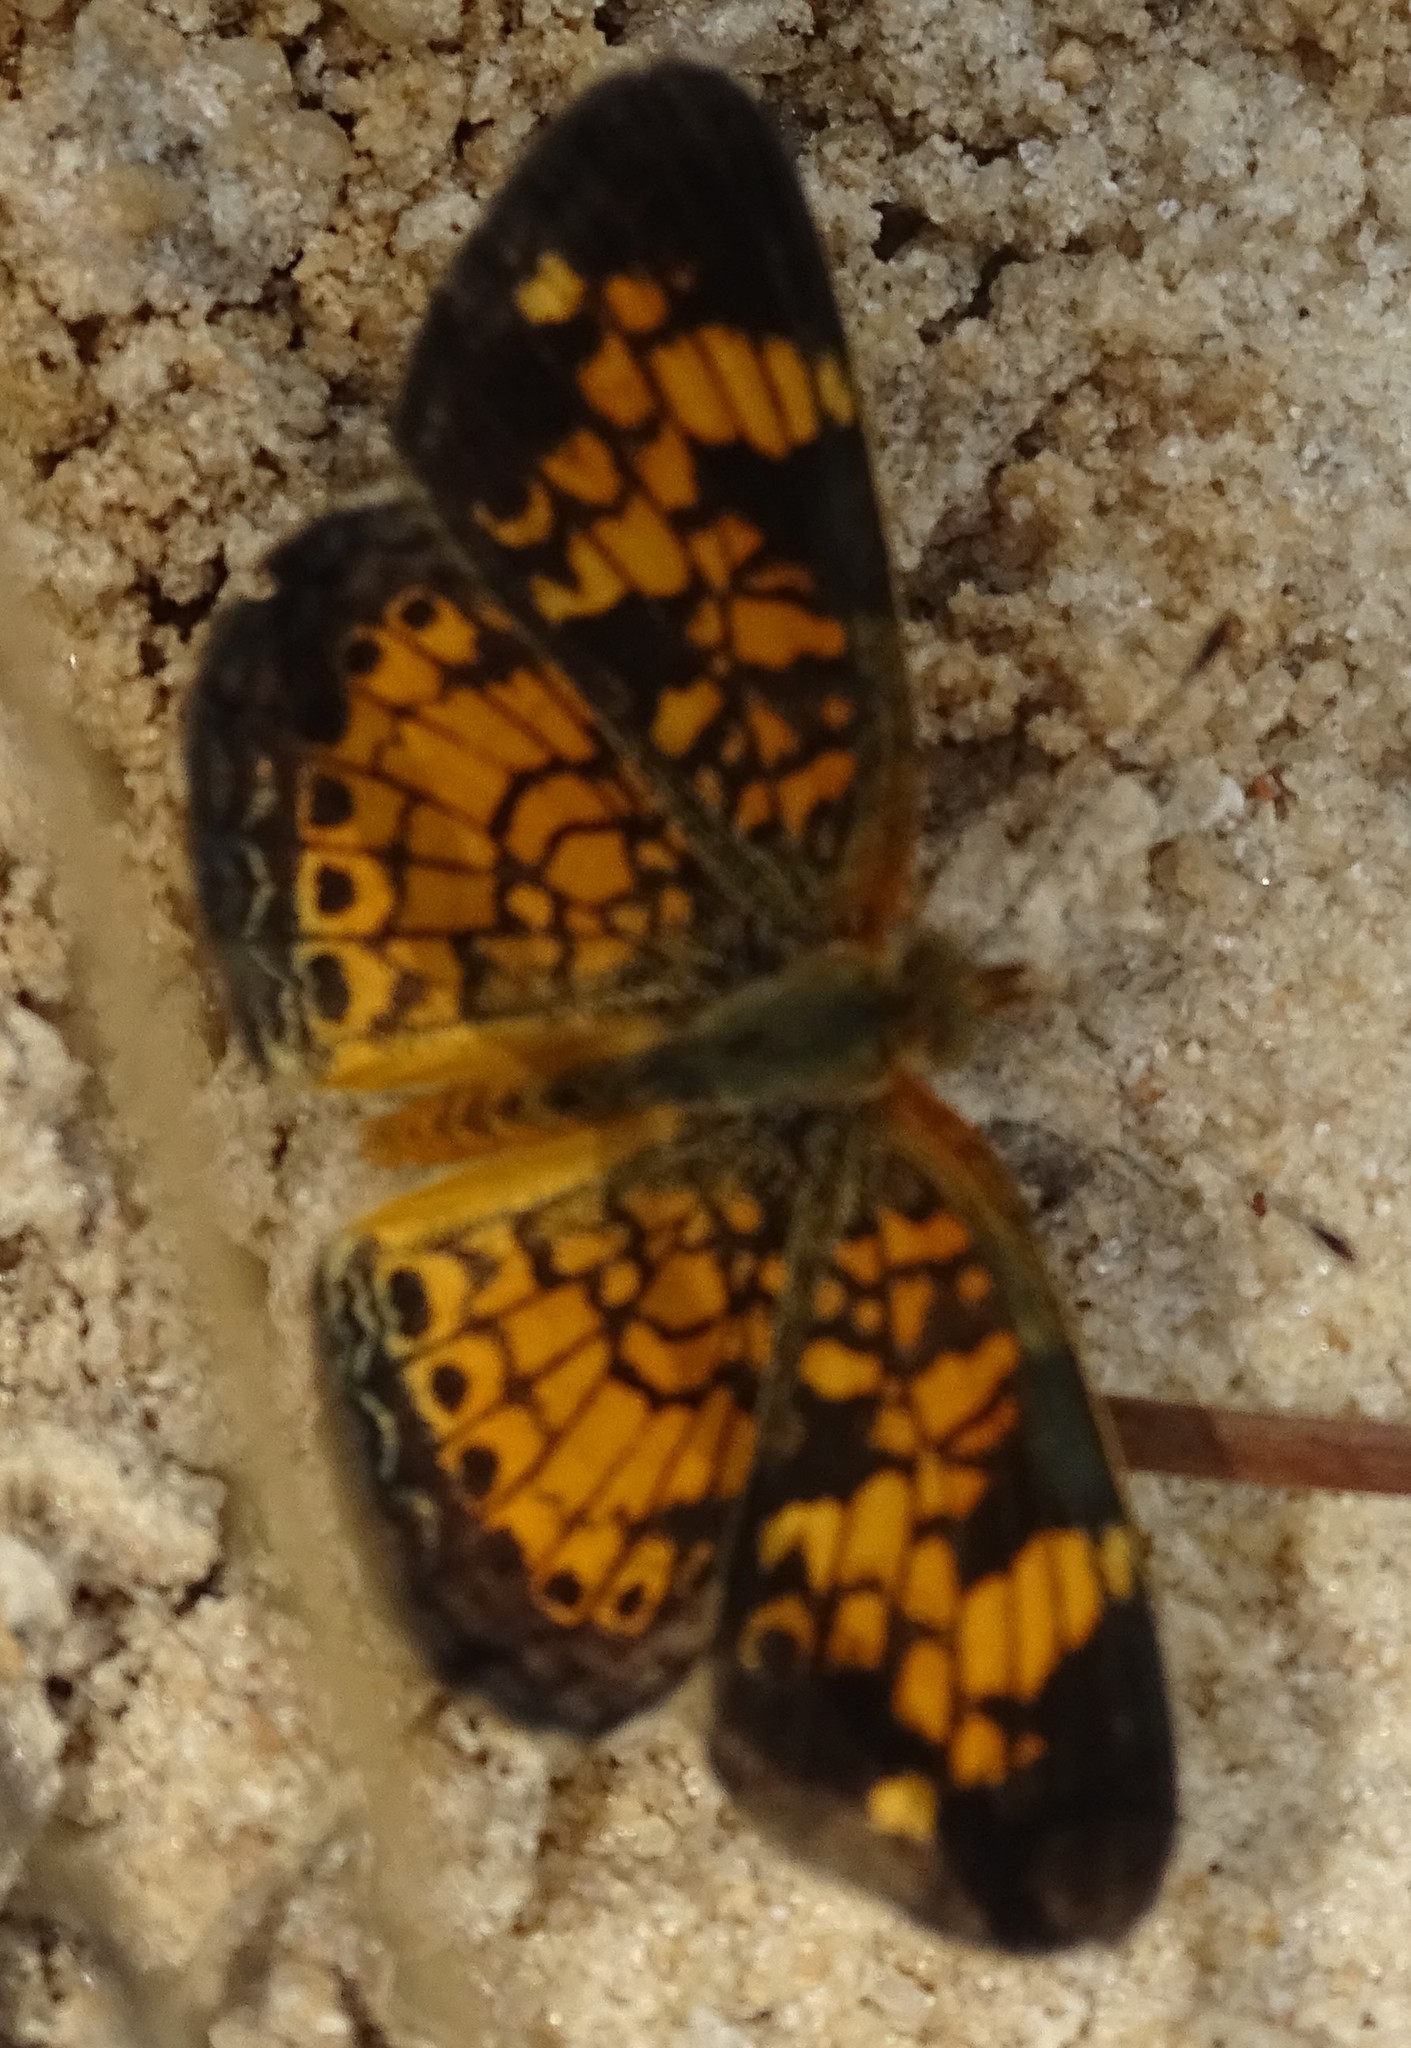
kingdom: Animalia
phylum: Arthropoda
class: Insecta
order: Lepidoptera
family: Nymphalidae
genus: Phyciodes
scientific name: Phyciodes tharos
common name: Pearl crescent
